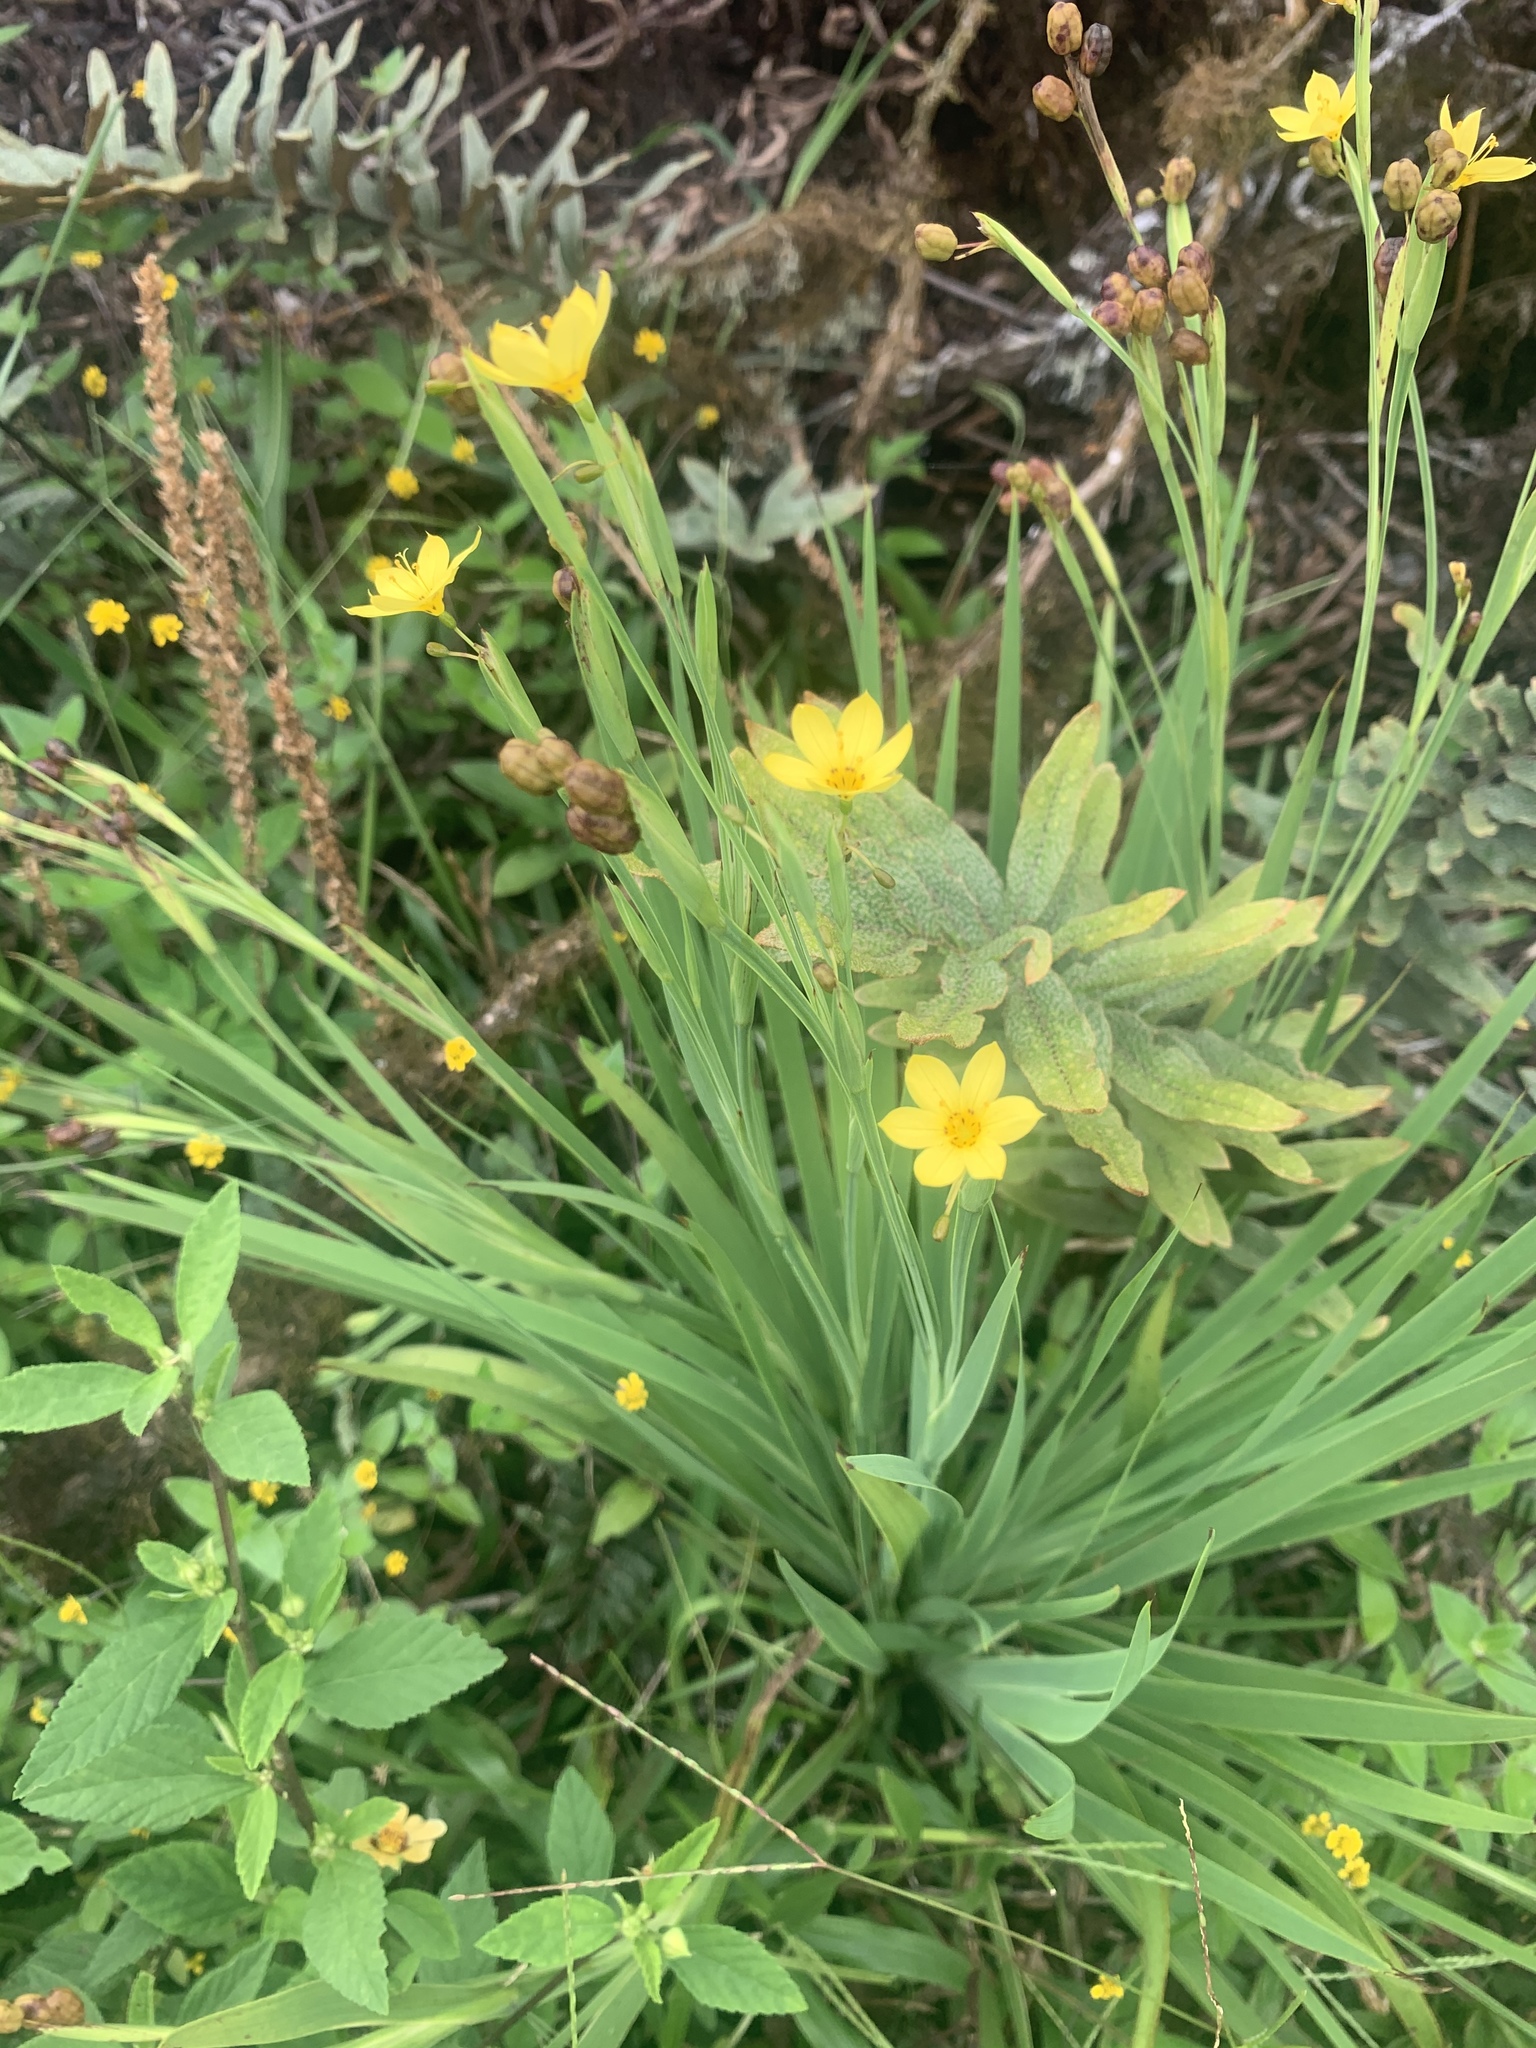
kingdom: Plantae
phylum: Tracheophyta
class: Liliopsida
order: Asparagales
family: Iridaceae
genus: Sisyrinchium
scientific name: Sisyrinchium galapagense
